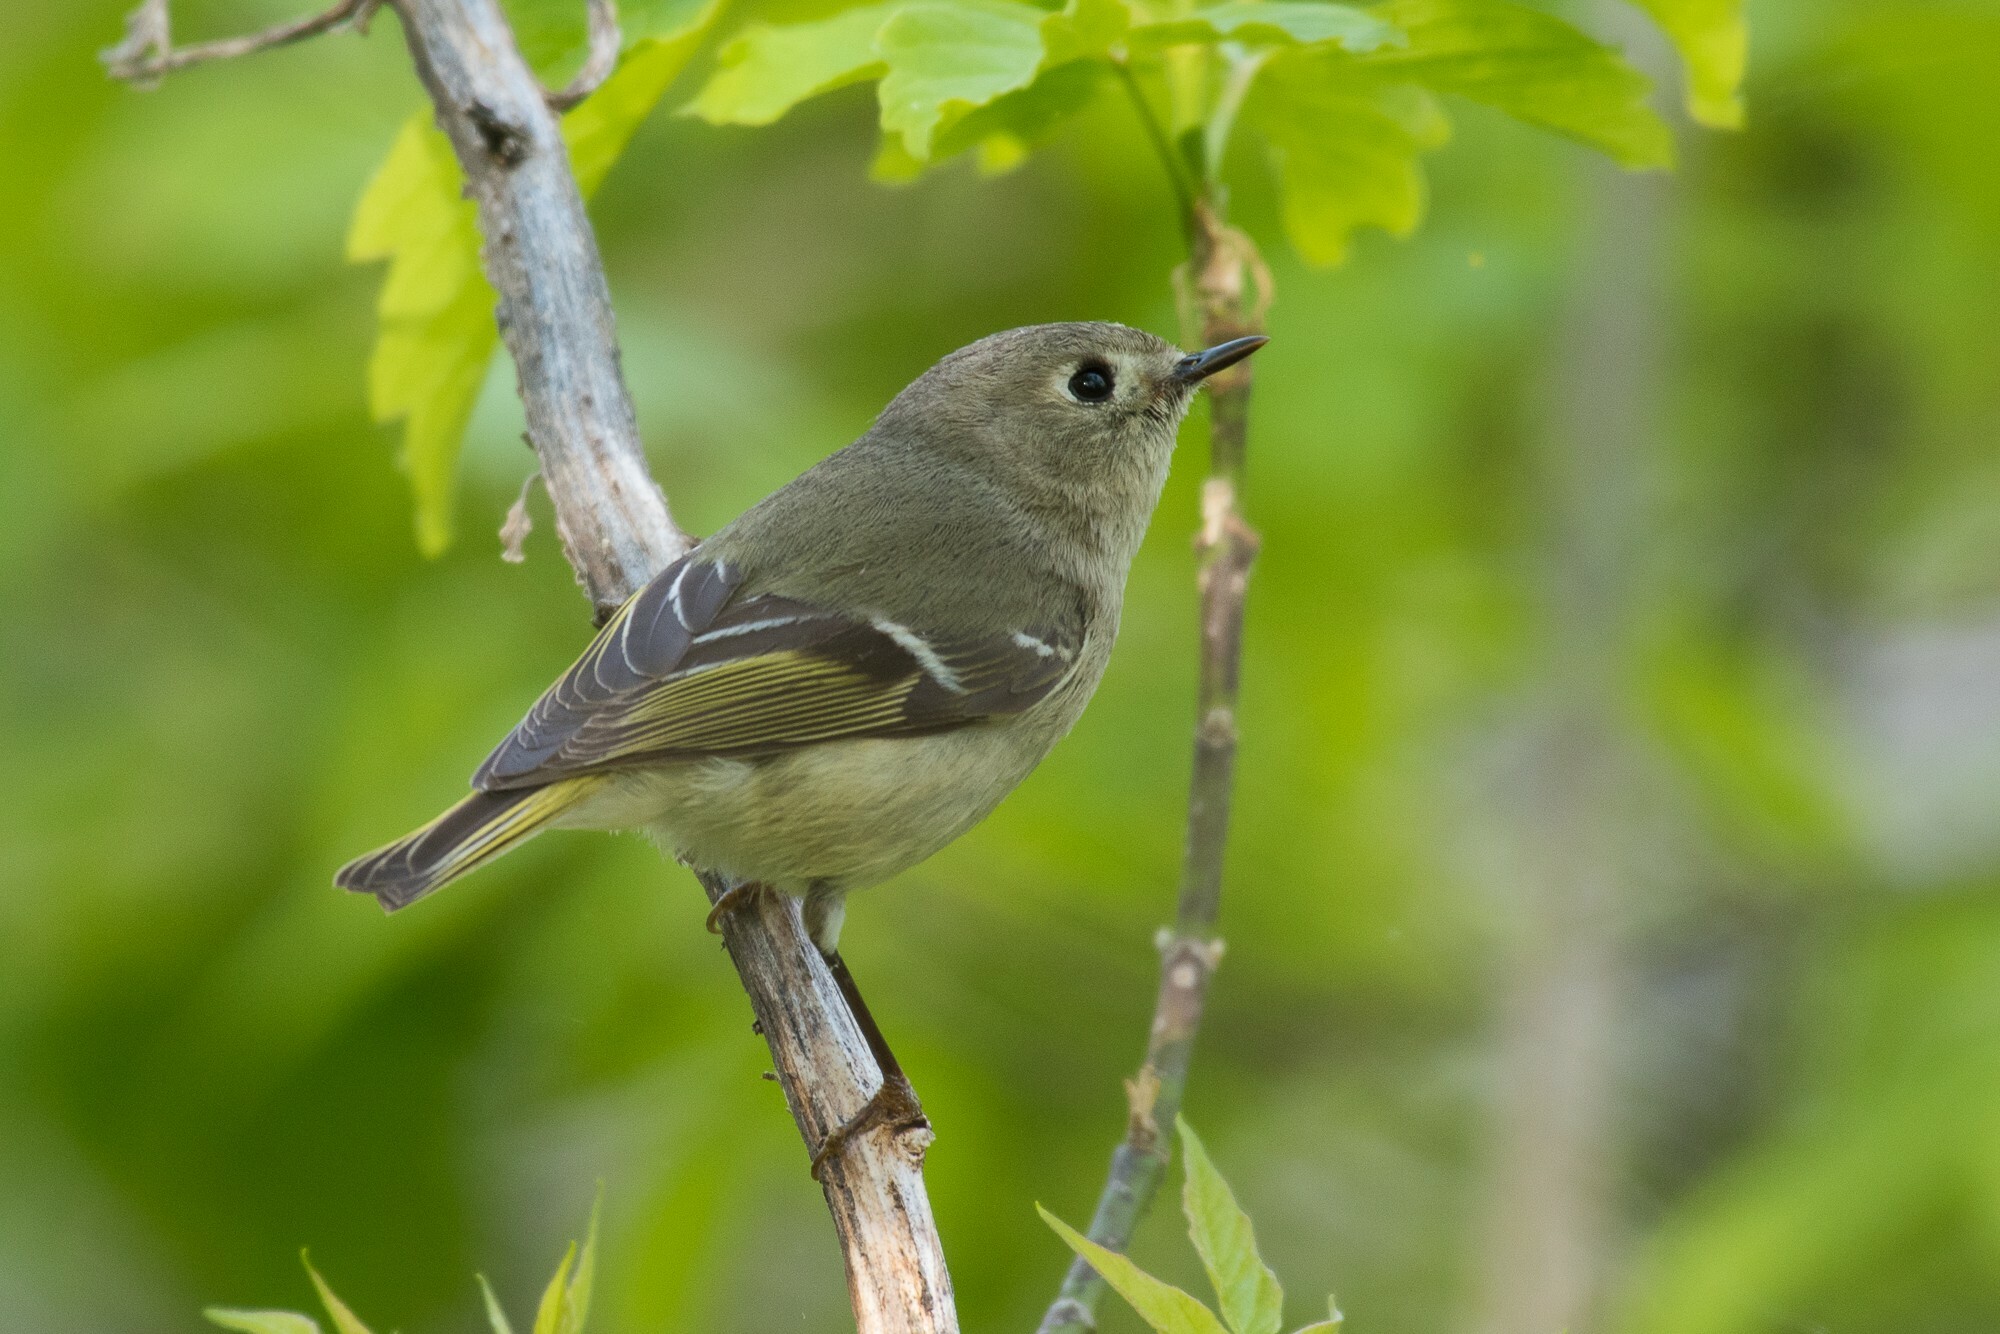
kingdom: Animalia
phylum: Chordata
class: Aves
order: Passeriformes
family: Regulidae
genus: Regulus
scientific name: Regulus calendula
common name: Ruby-crowned kinglet
